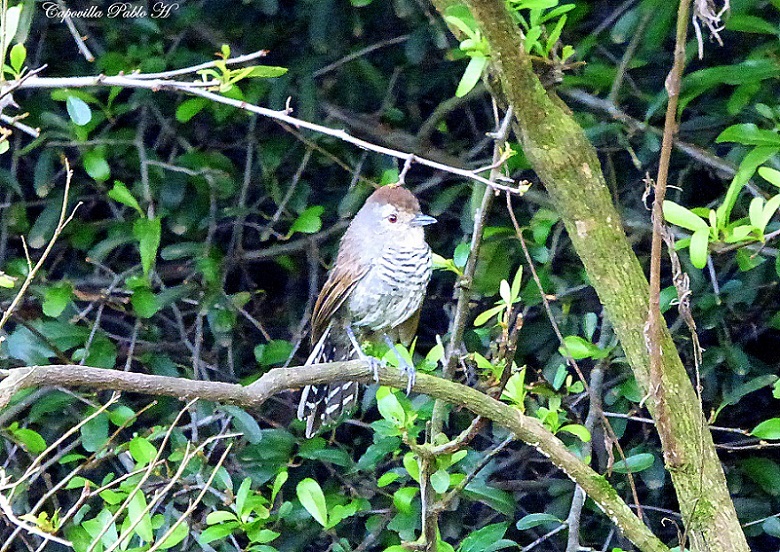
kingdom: Animalia
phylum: Chordata
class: Aves
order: Passeriformes
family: Thamnophilidae
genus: Thamnophilus
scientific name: Thamnophilus ruficapillus
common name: Rufous-capped antshrike
